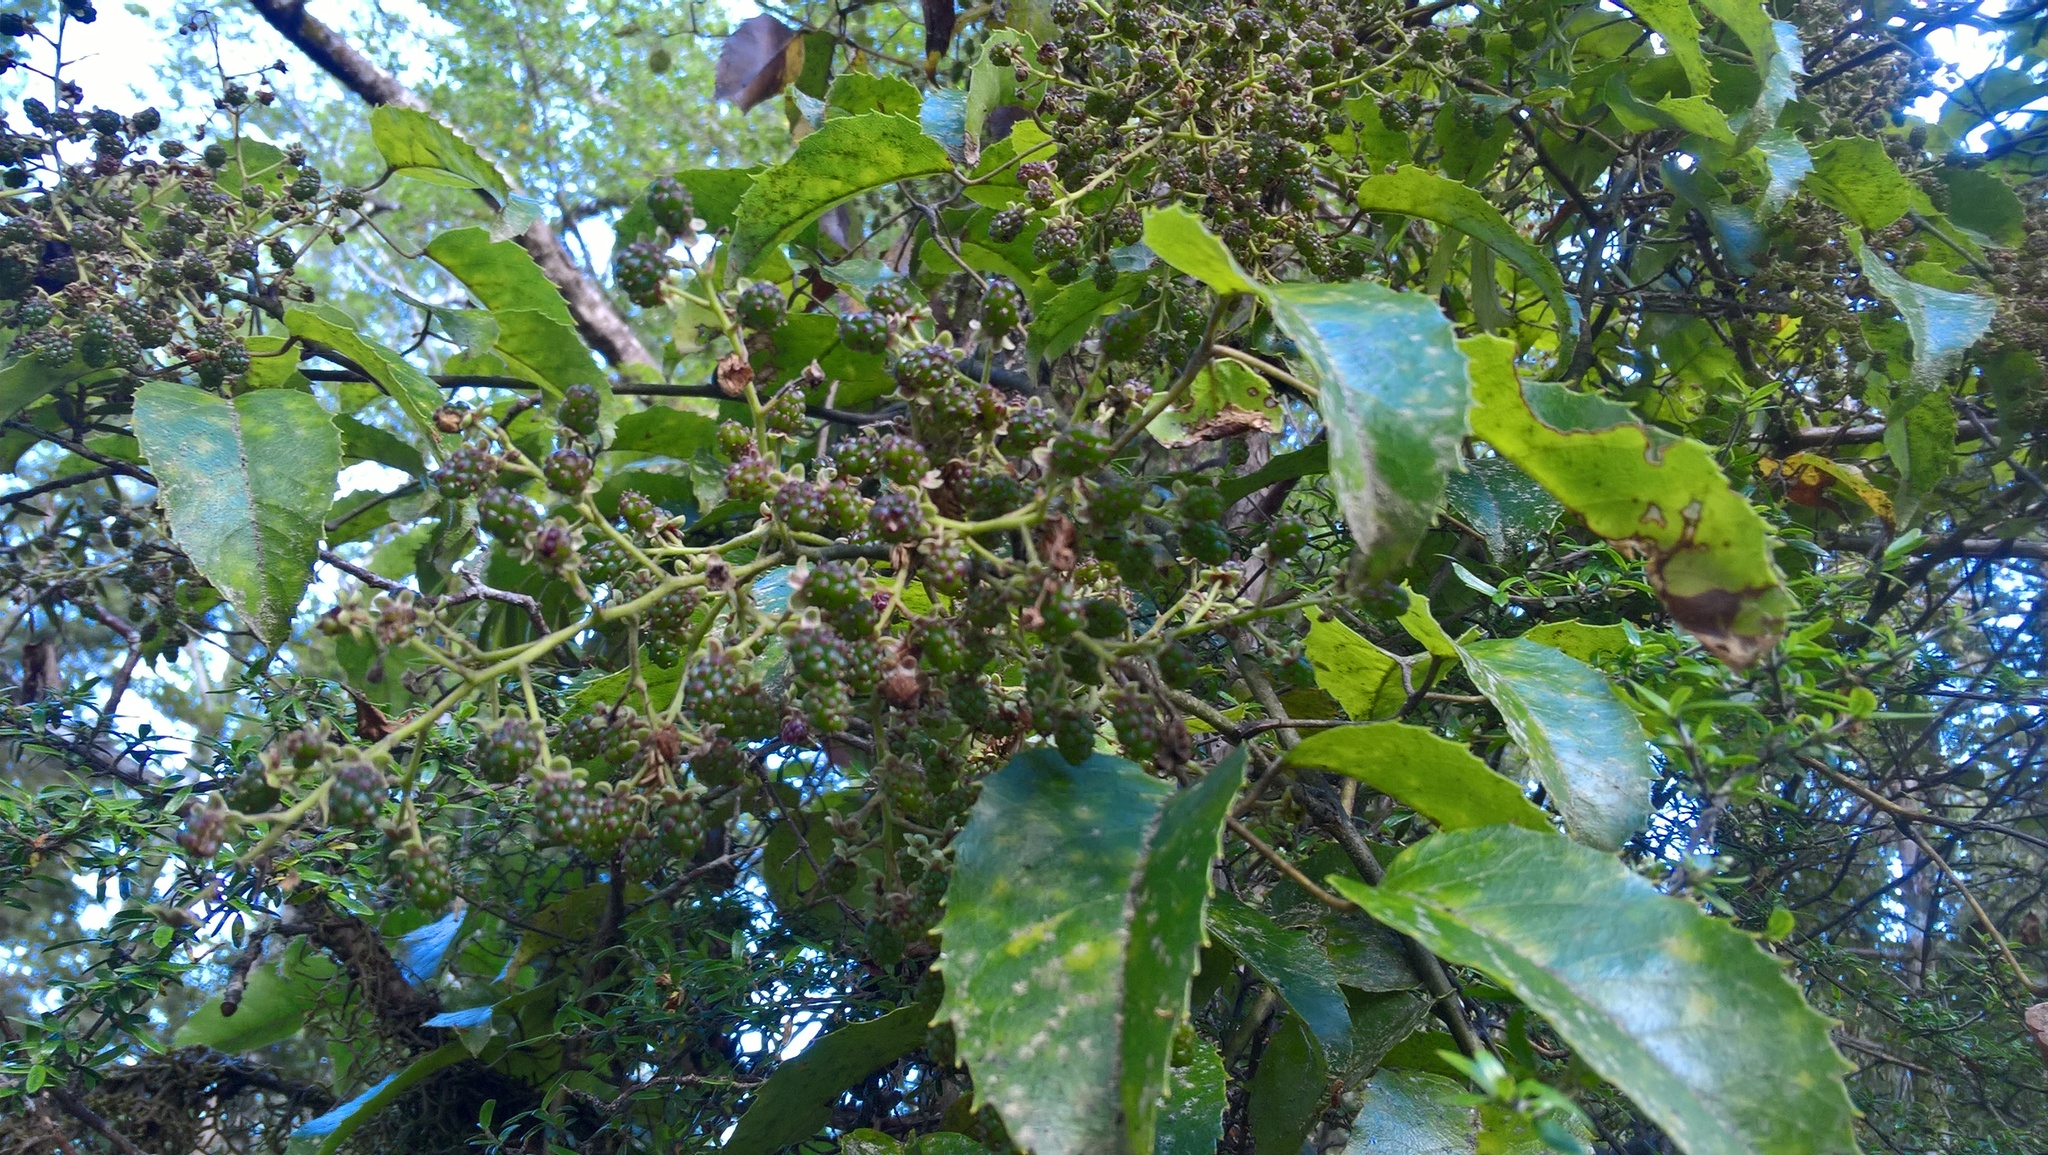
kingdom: Plantae
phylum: Tracheophyta
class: Magnoliopsida
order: Rosales
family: Rosaceae
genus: Rubus
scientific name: Rubus cissoides
